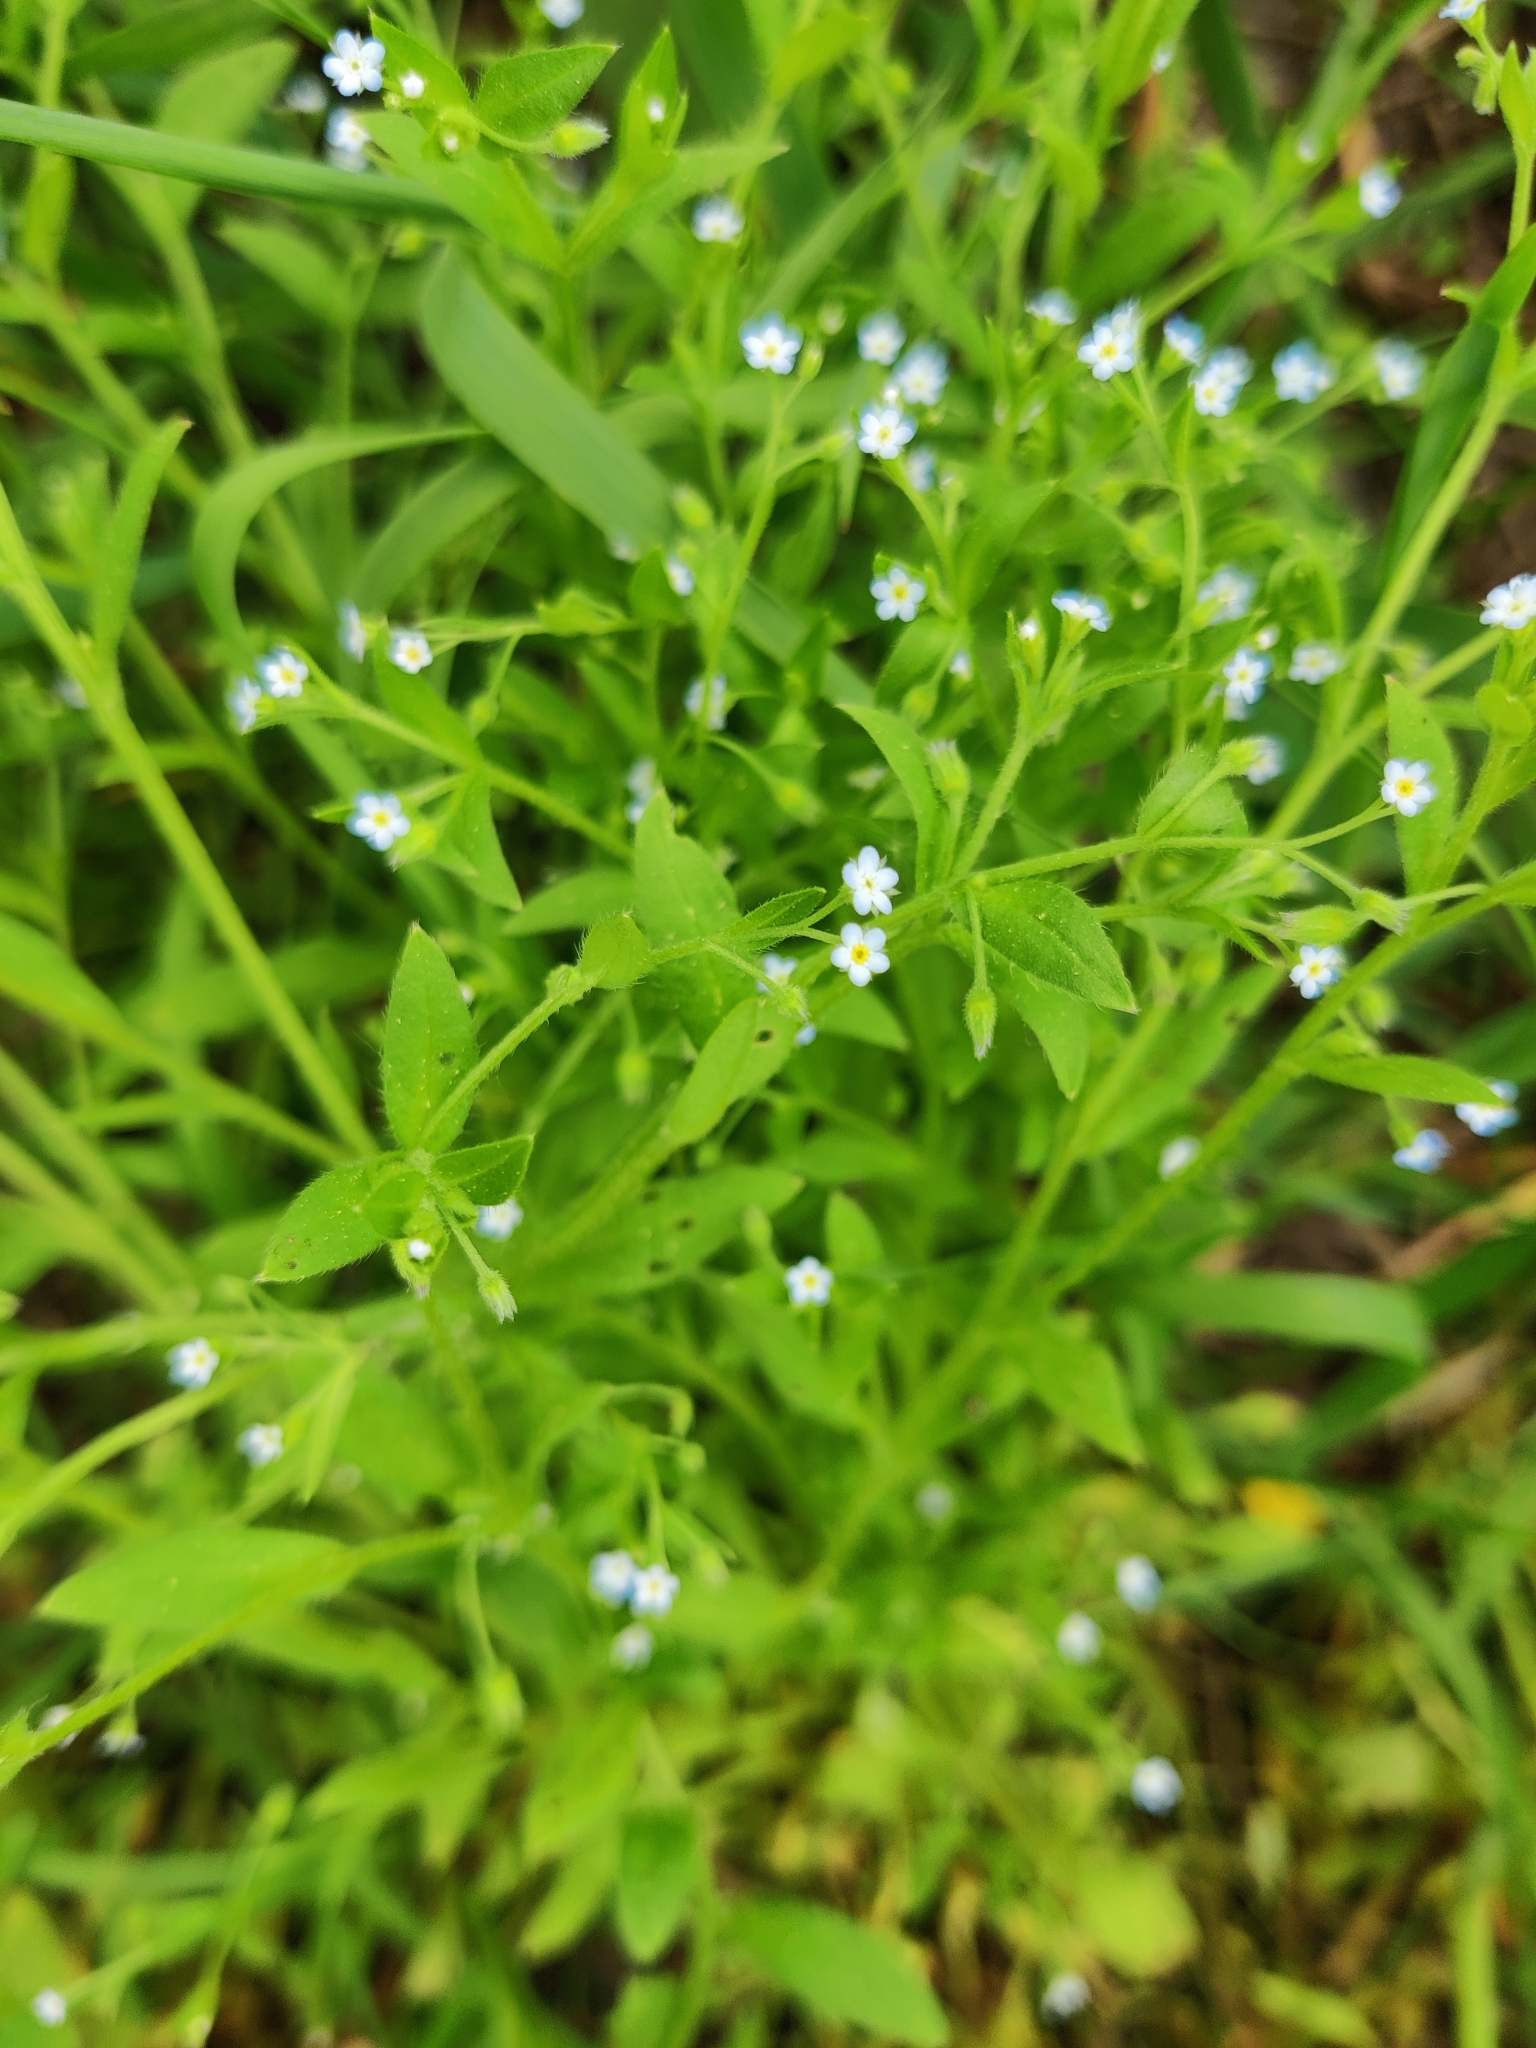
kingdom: Plantae
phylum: Tracheophyta
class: Magnoliopsida
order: Boraginales
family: Boraginaceae
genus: Myosotis
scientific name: Myosotis sparsiflora
